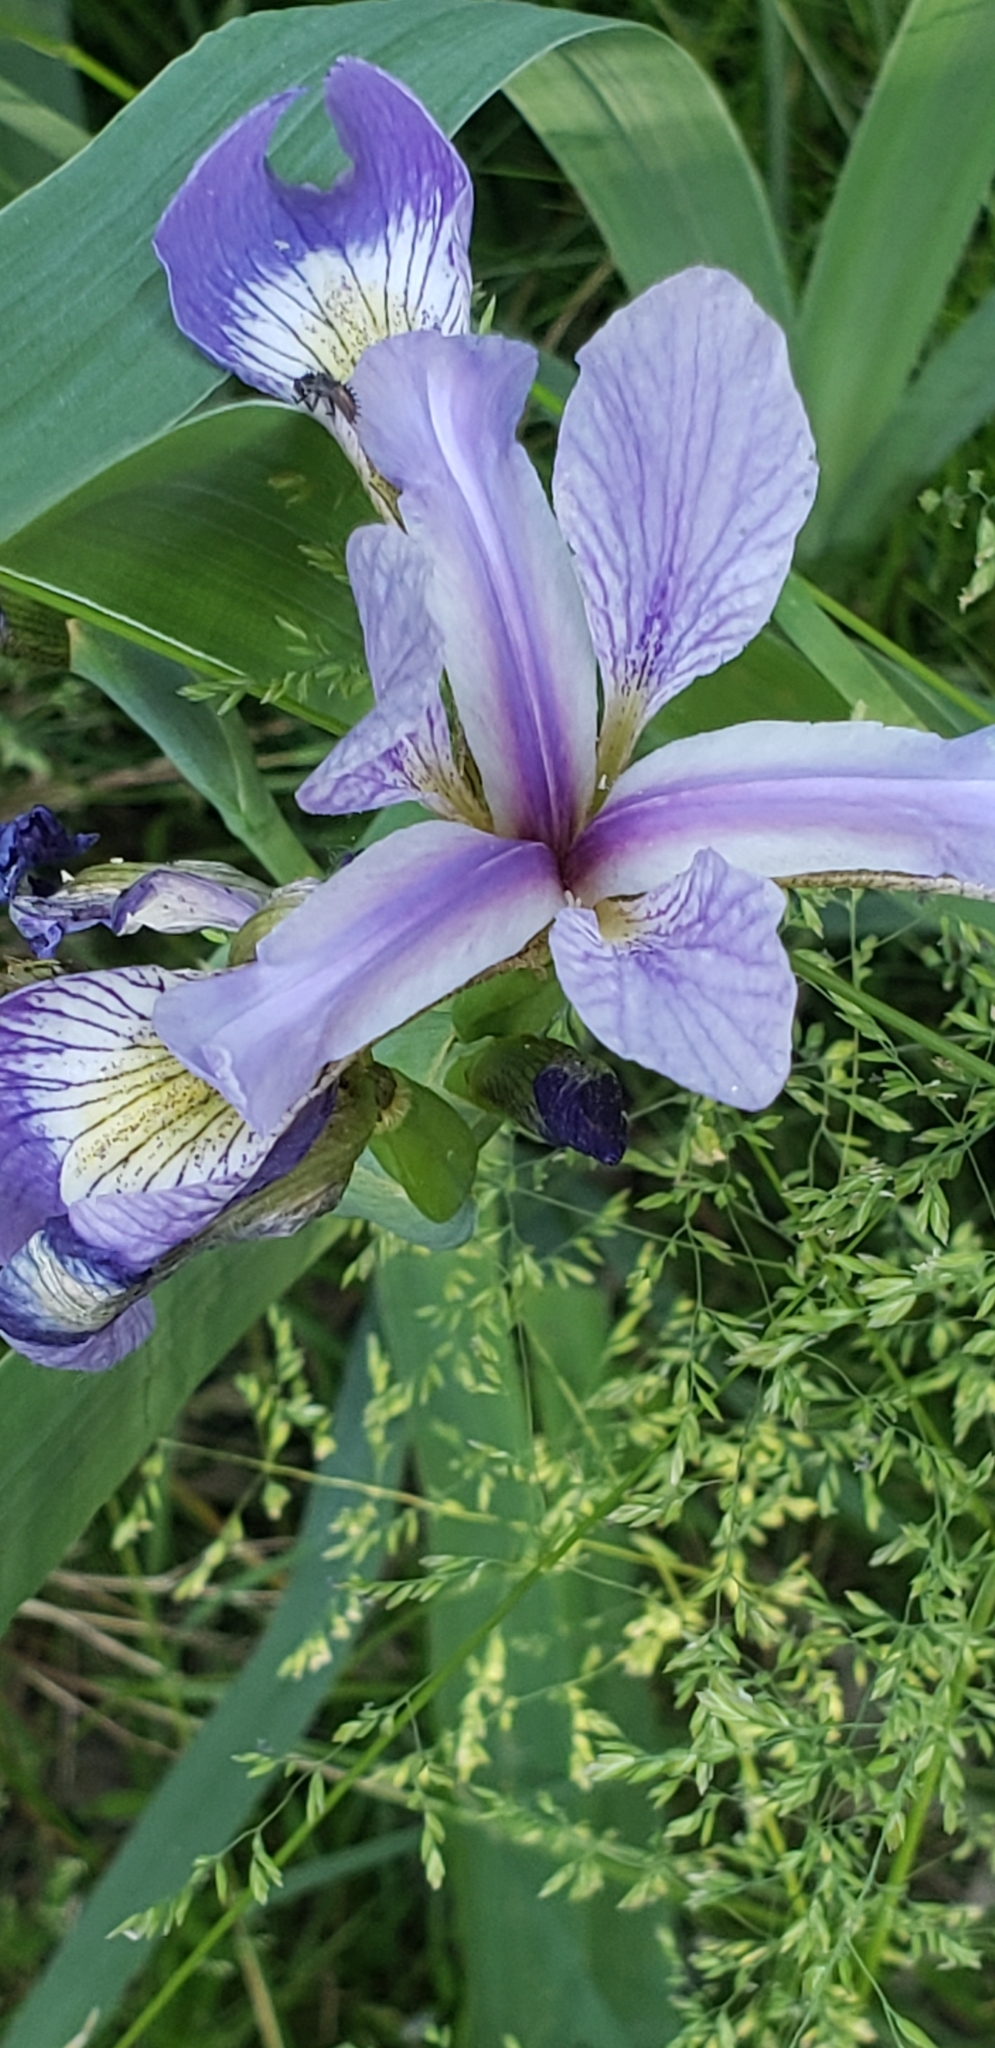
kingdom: Plantae
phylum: Tracheophyta
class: Liliopsida
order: Asparagales
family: Iridaceae
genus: Iris
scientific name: Iris virginica
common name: Southern blue flag
